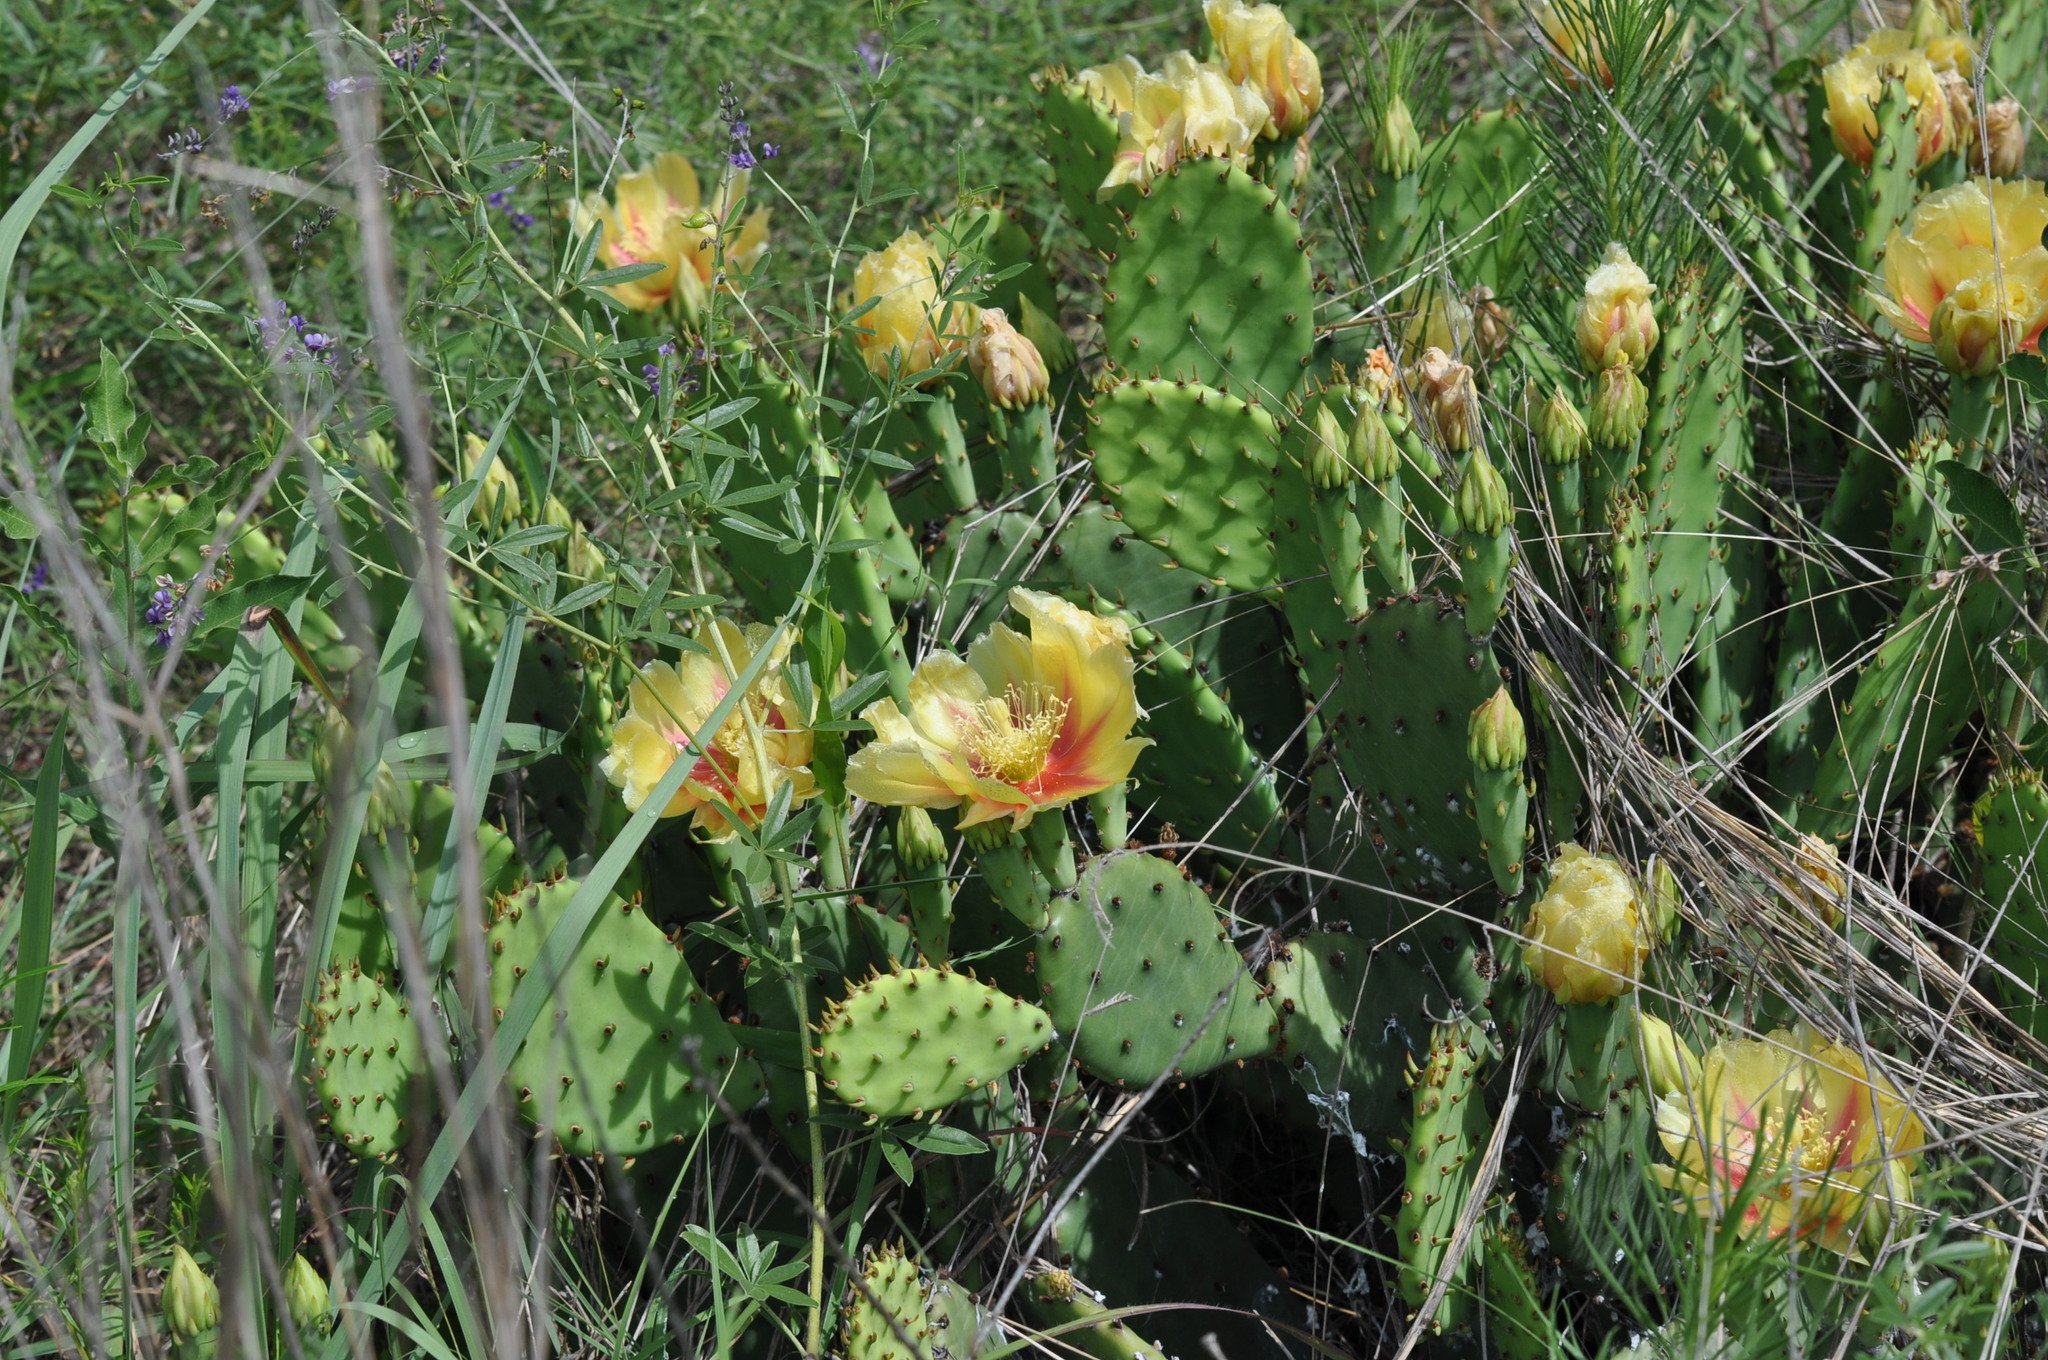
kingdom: Plantae
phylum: Tracheophyta
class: Magnoliopsida
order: Caryophyllales
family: Cactaceae
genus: Opuntia
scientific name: Opuntia macrorhiza
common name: Grassland pricklypear
